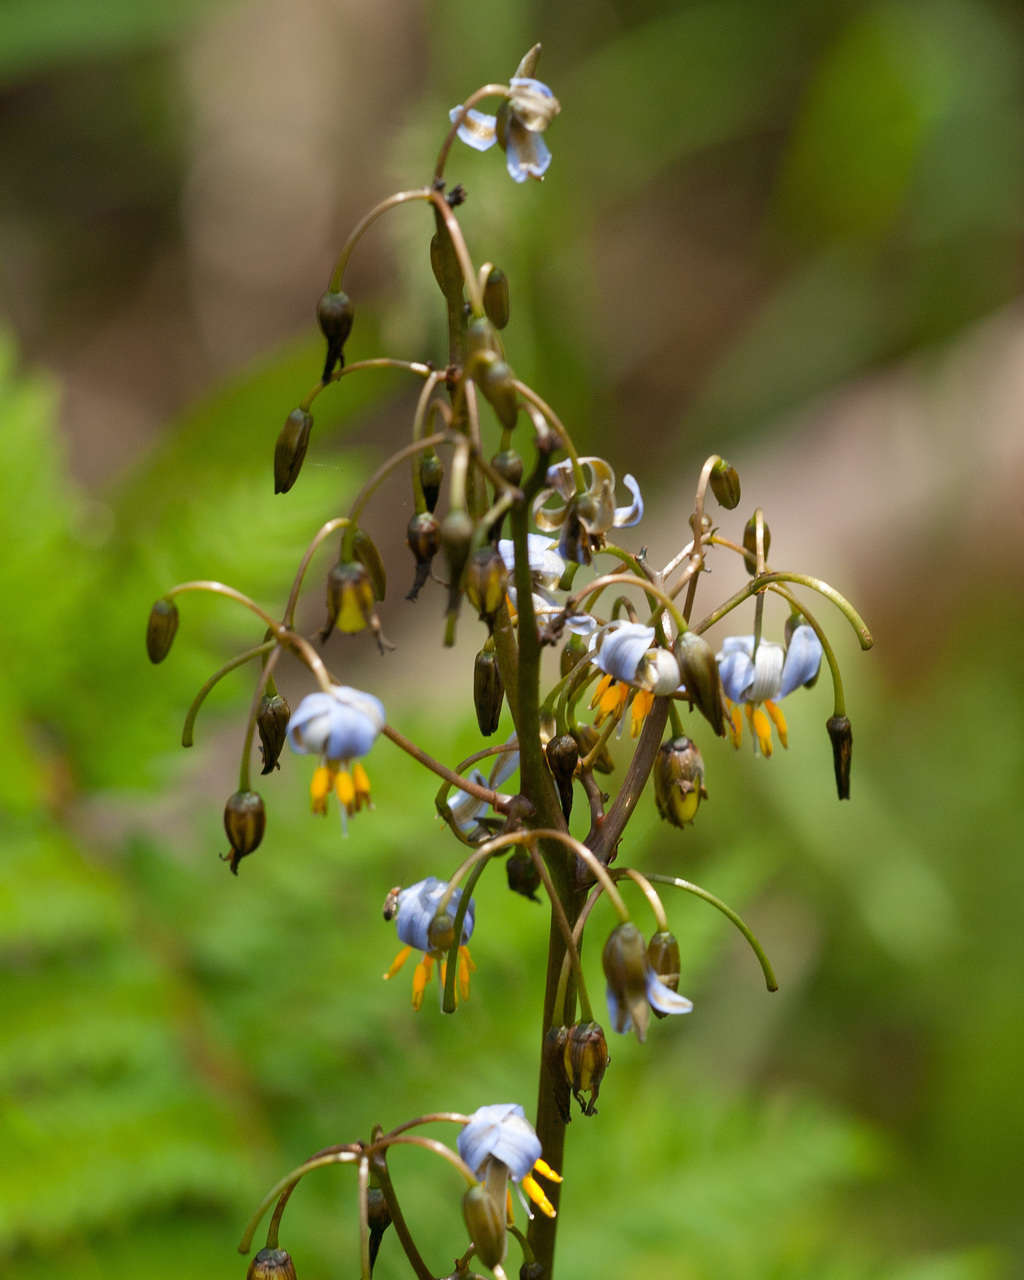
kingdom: Plantae
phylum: Tracheophyta
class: Liliopsida
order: Asparagales
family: Asphodelaceae
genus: Dianella
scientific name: Dianella tasmanica
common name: Tasman flax-lily
